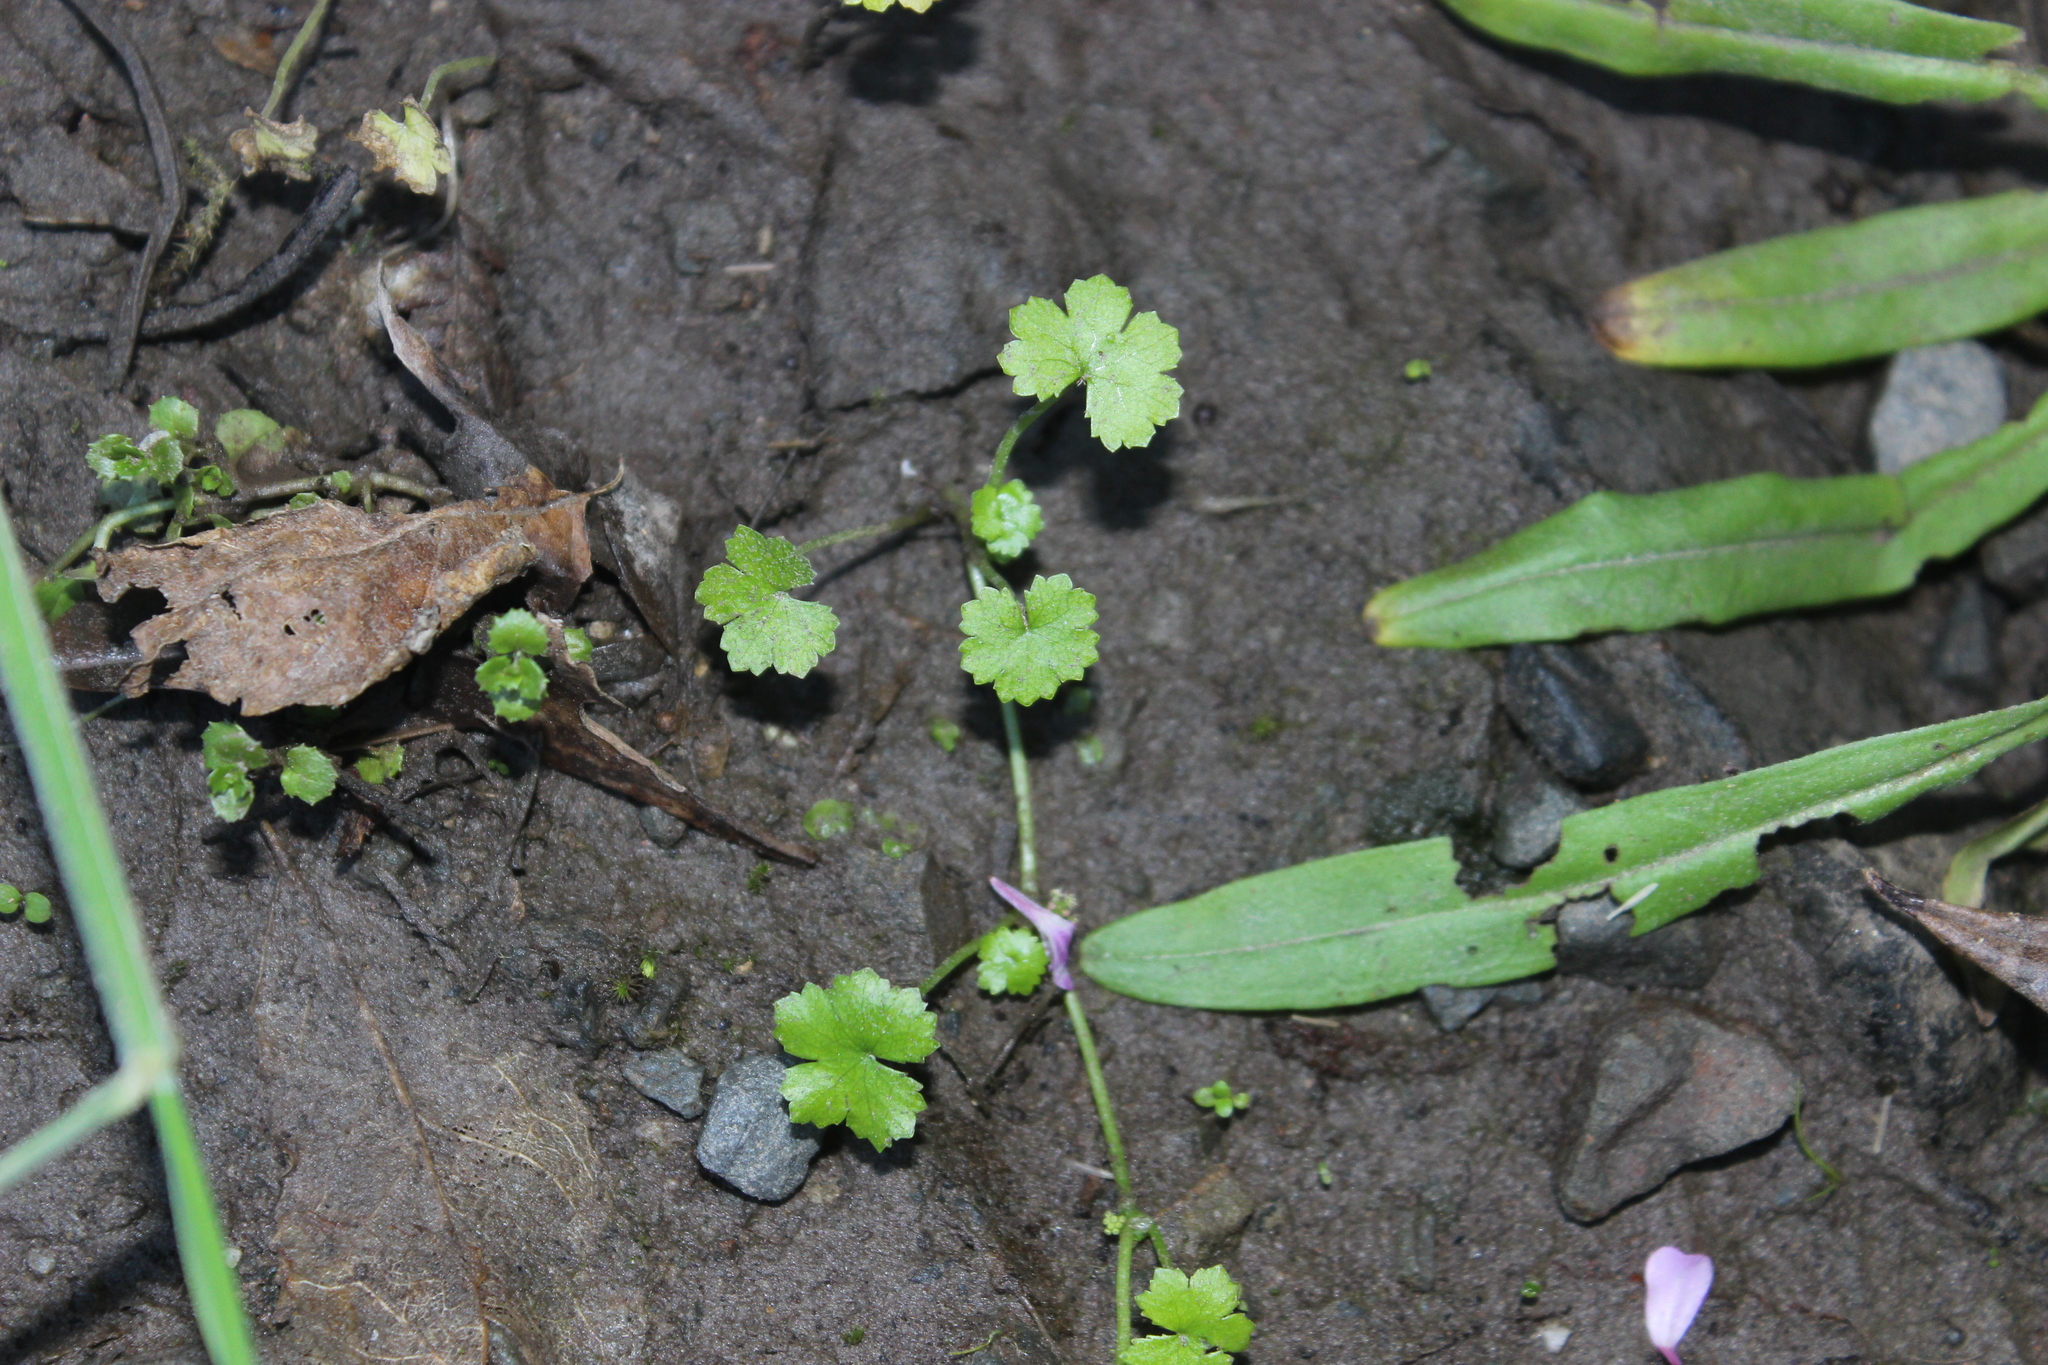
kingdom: Plantae
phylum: Tracheophyta
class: Magnoliopsida
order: Apiales
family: Araliaceae
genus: Hydrocotyle
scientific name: Hydrocotyle heteromeria
